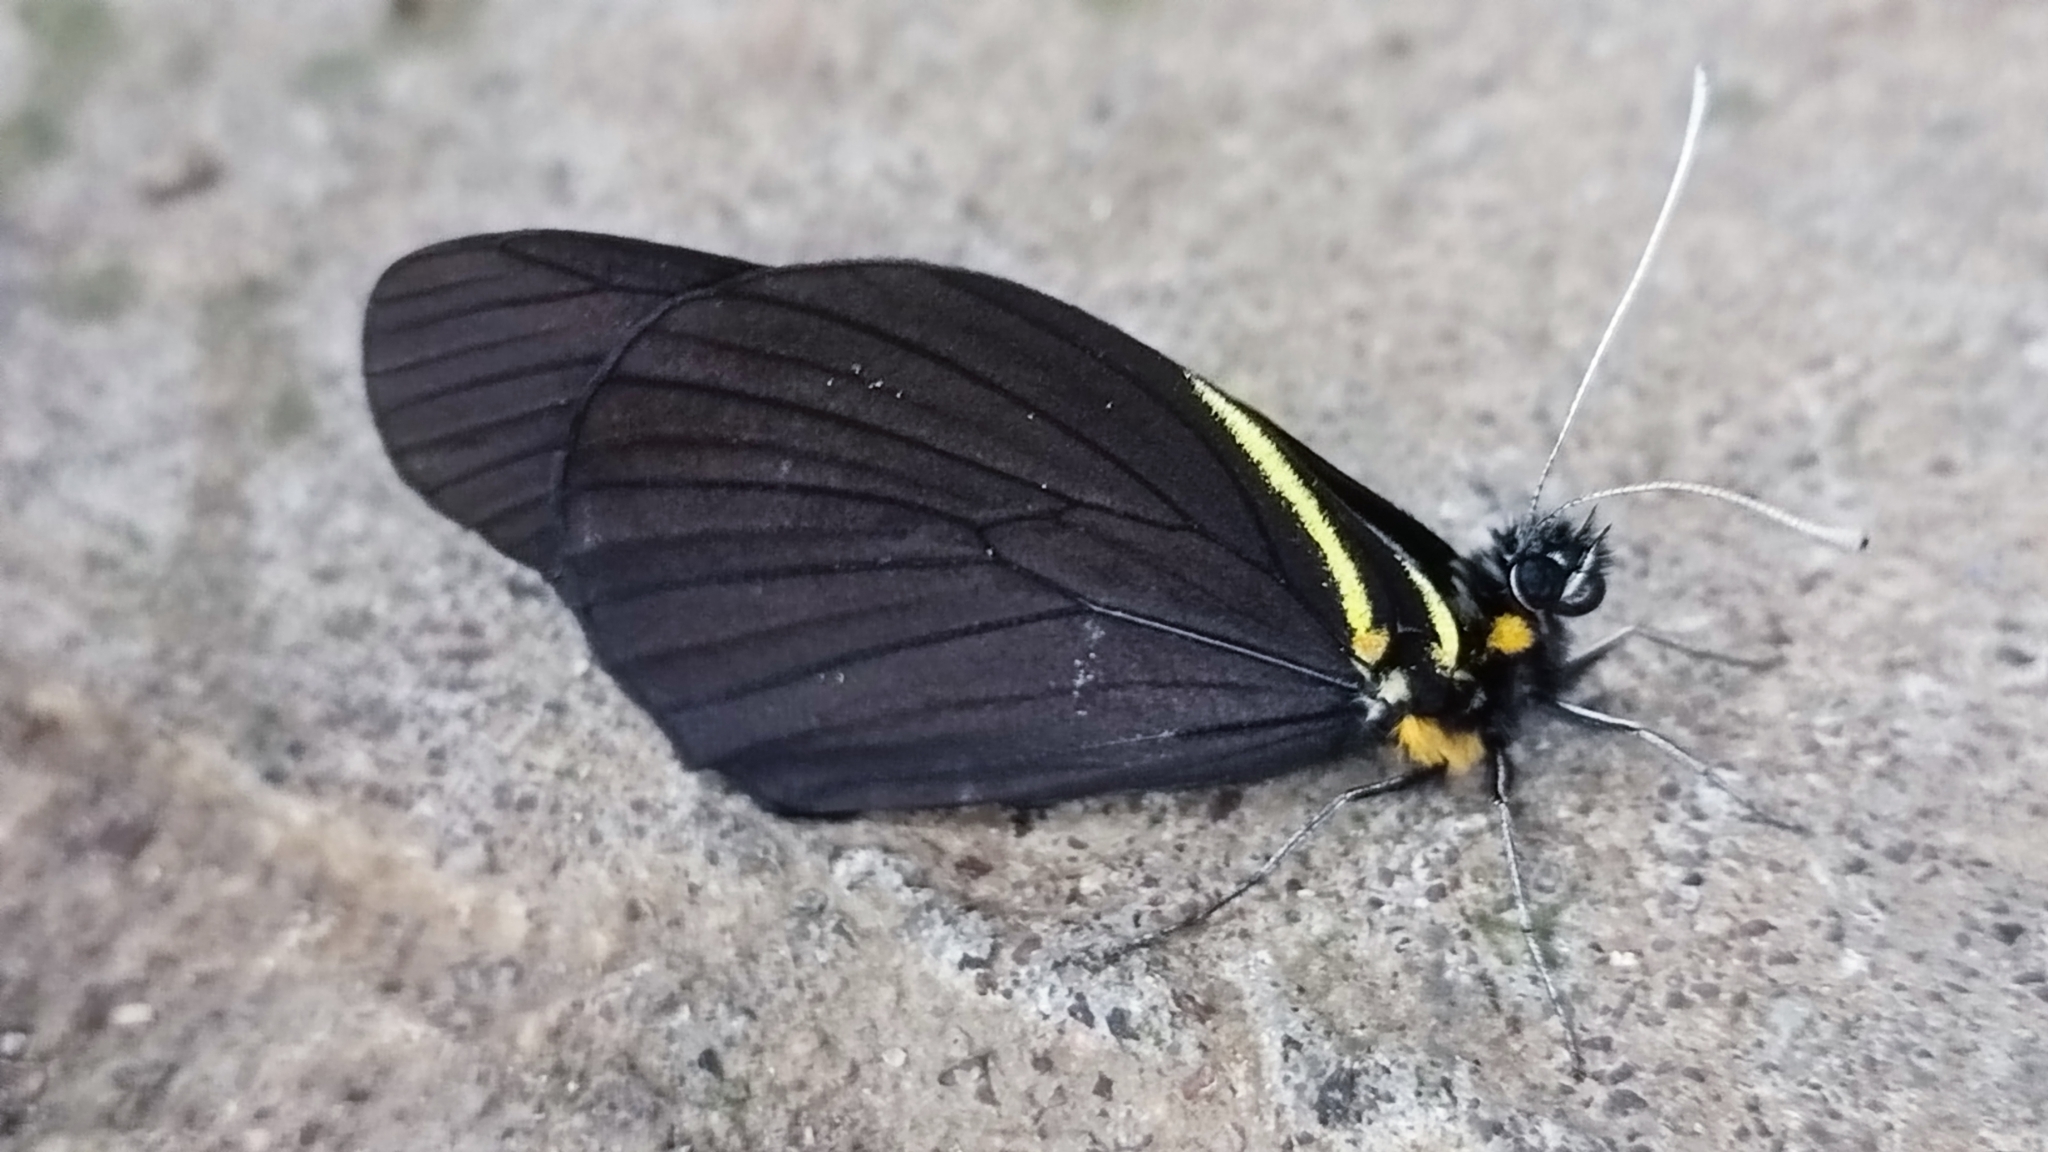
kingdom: Animalia
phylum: Arthropoda
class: Insecta
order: Lepidoptera
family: Pieridae
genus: Pereute
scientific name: Pereute charops
